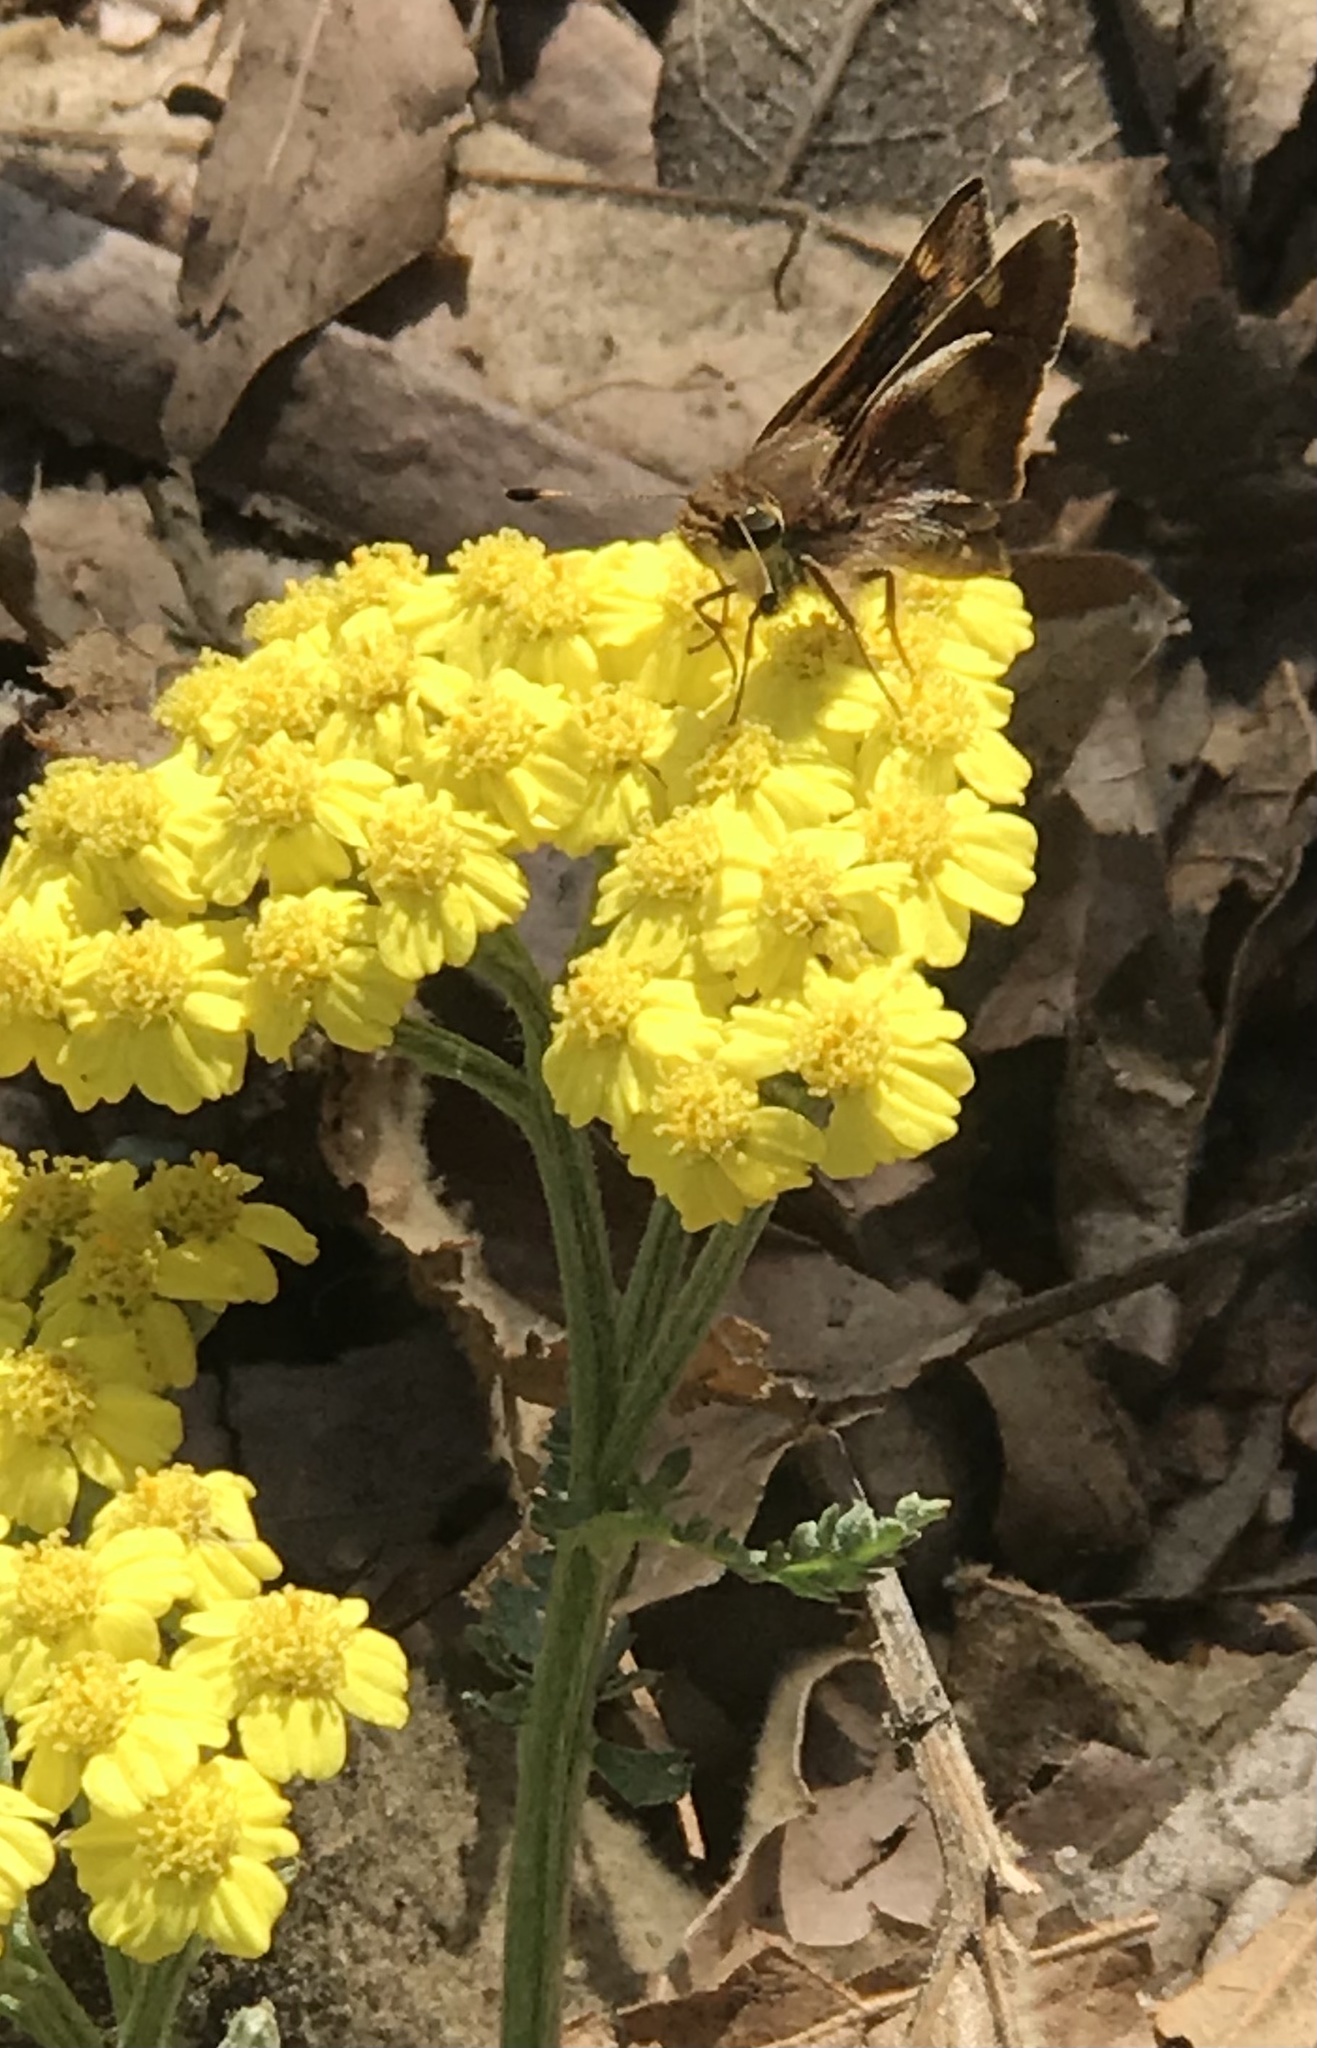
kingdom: Animalia
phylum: Arthropoda
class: Insecta
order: Lepidoptera
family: Hesperiidae
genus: Lon
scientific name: Lon melane
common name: Umber skipper
